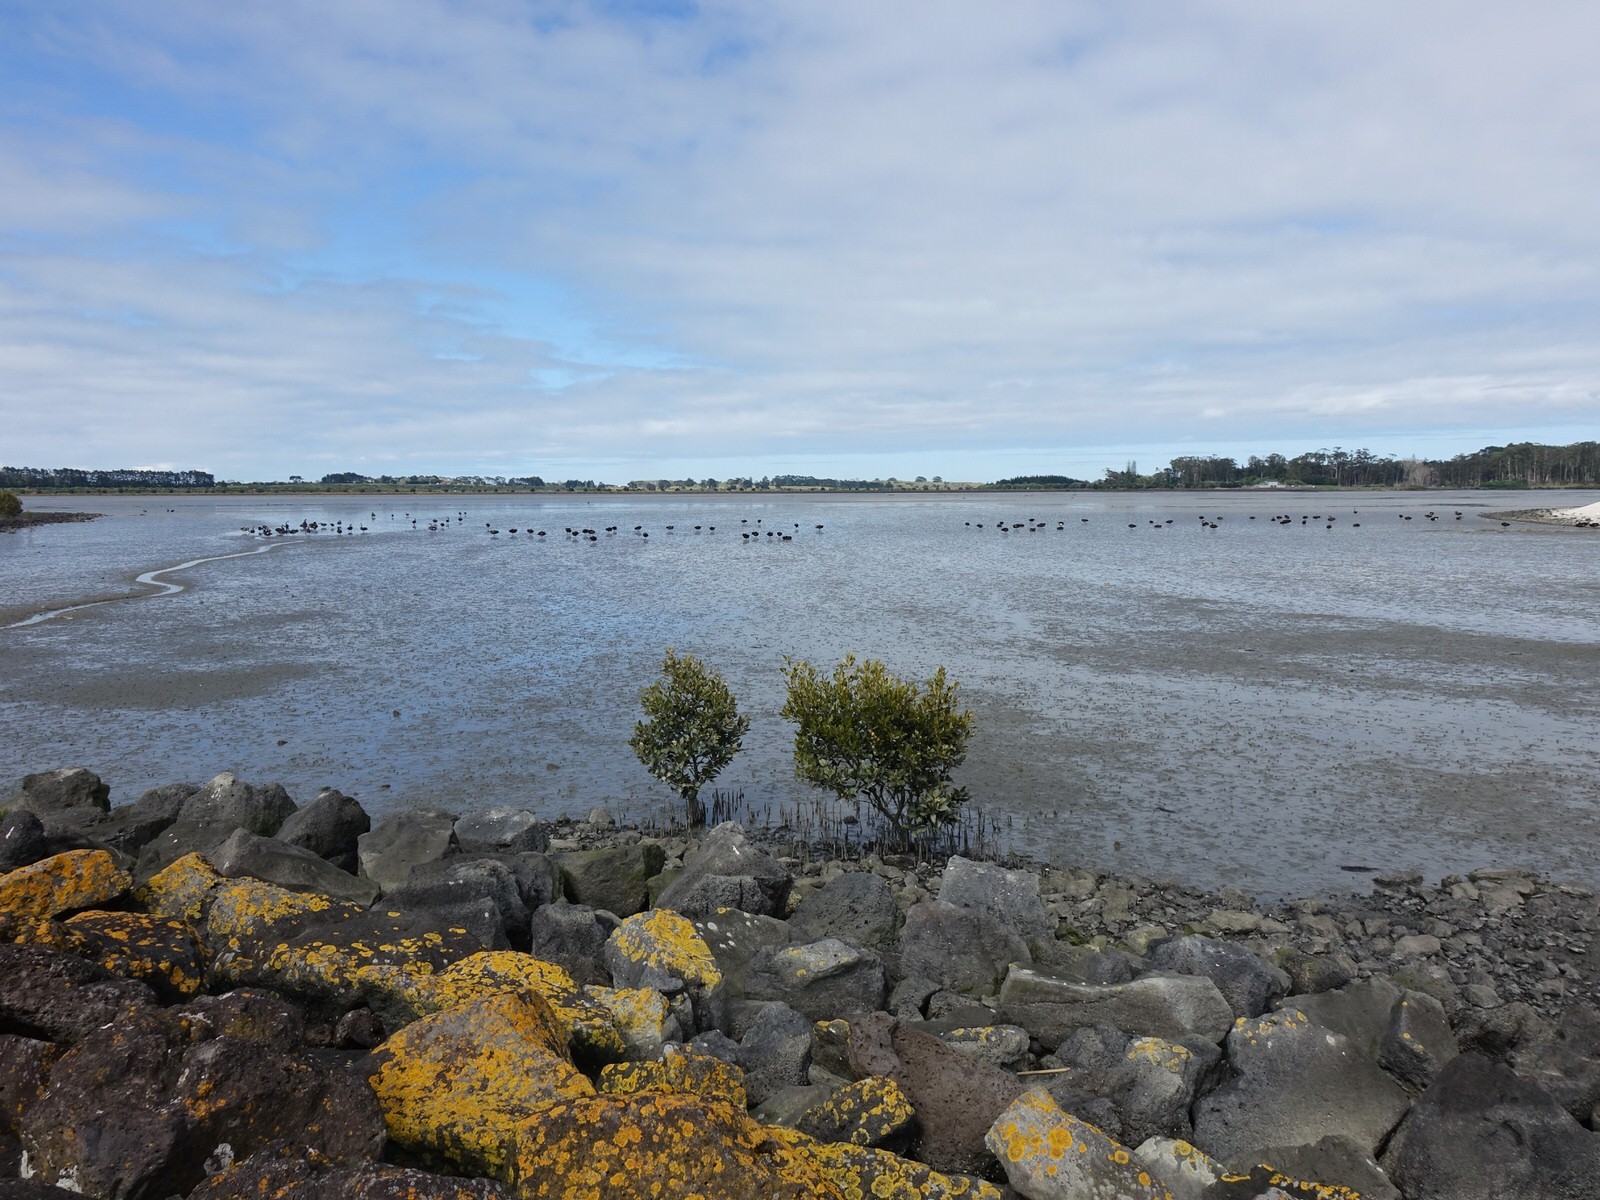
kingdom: Animalia
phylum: Chordata
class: Aves
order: Anseriformes
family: Anatidae
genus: Cygnus
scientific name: Cygnus atratus
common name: Black swan
